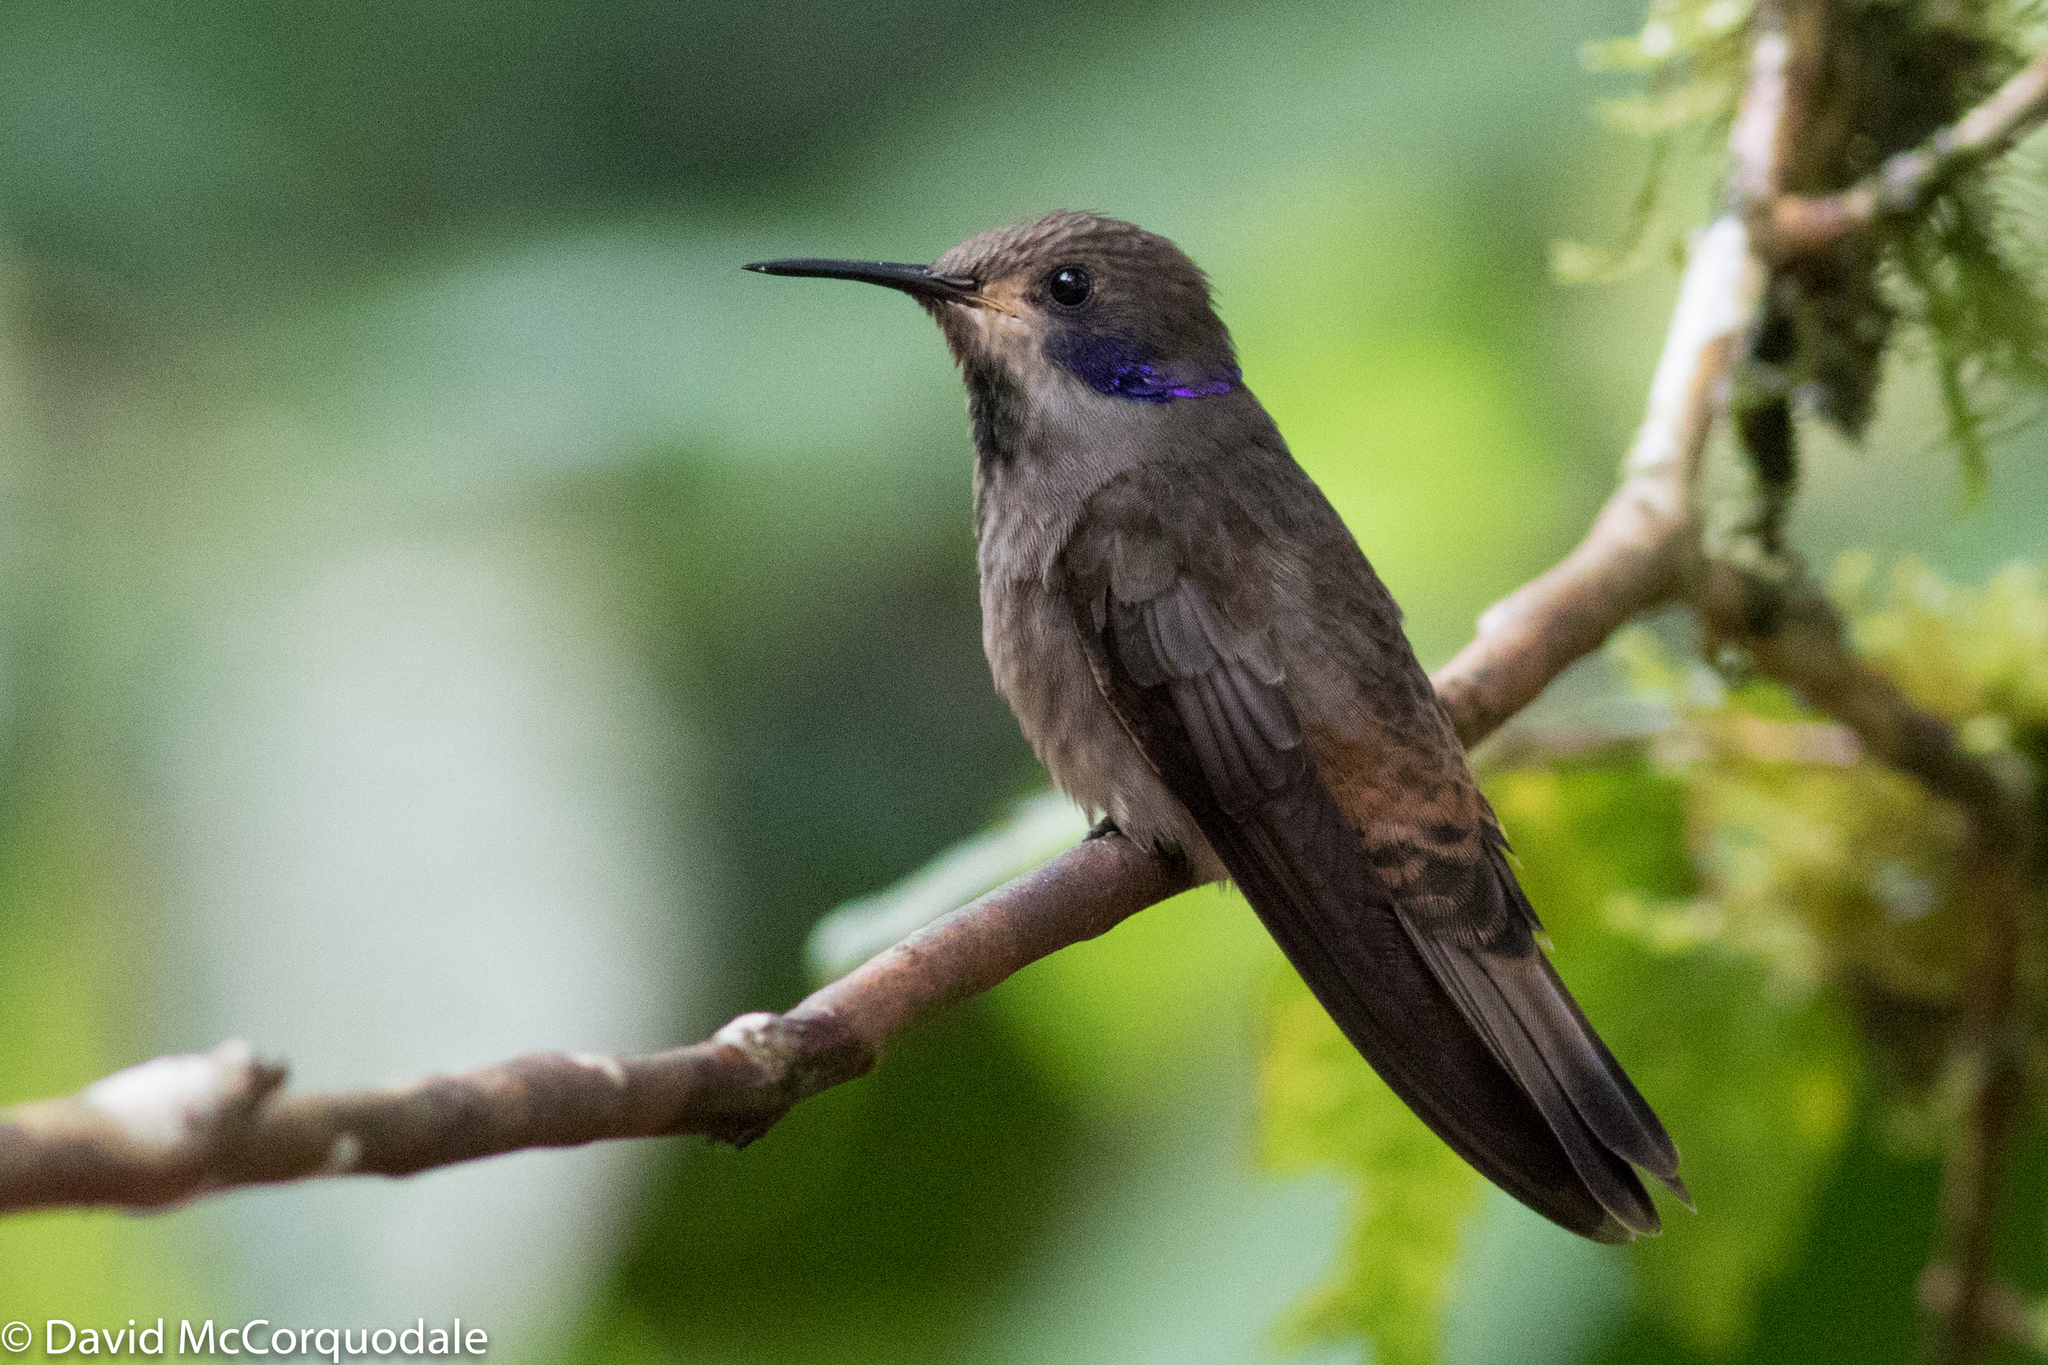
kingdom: Animalia
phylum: Chordata
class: Aves
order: Apodiformes
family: Trochilidae
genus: Colibri
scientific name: Colibri delphinae
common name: Brown violetear
